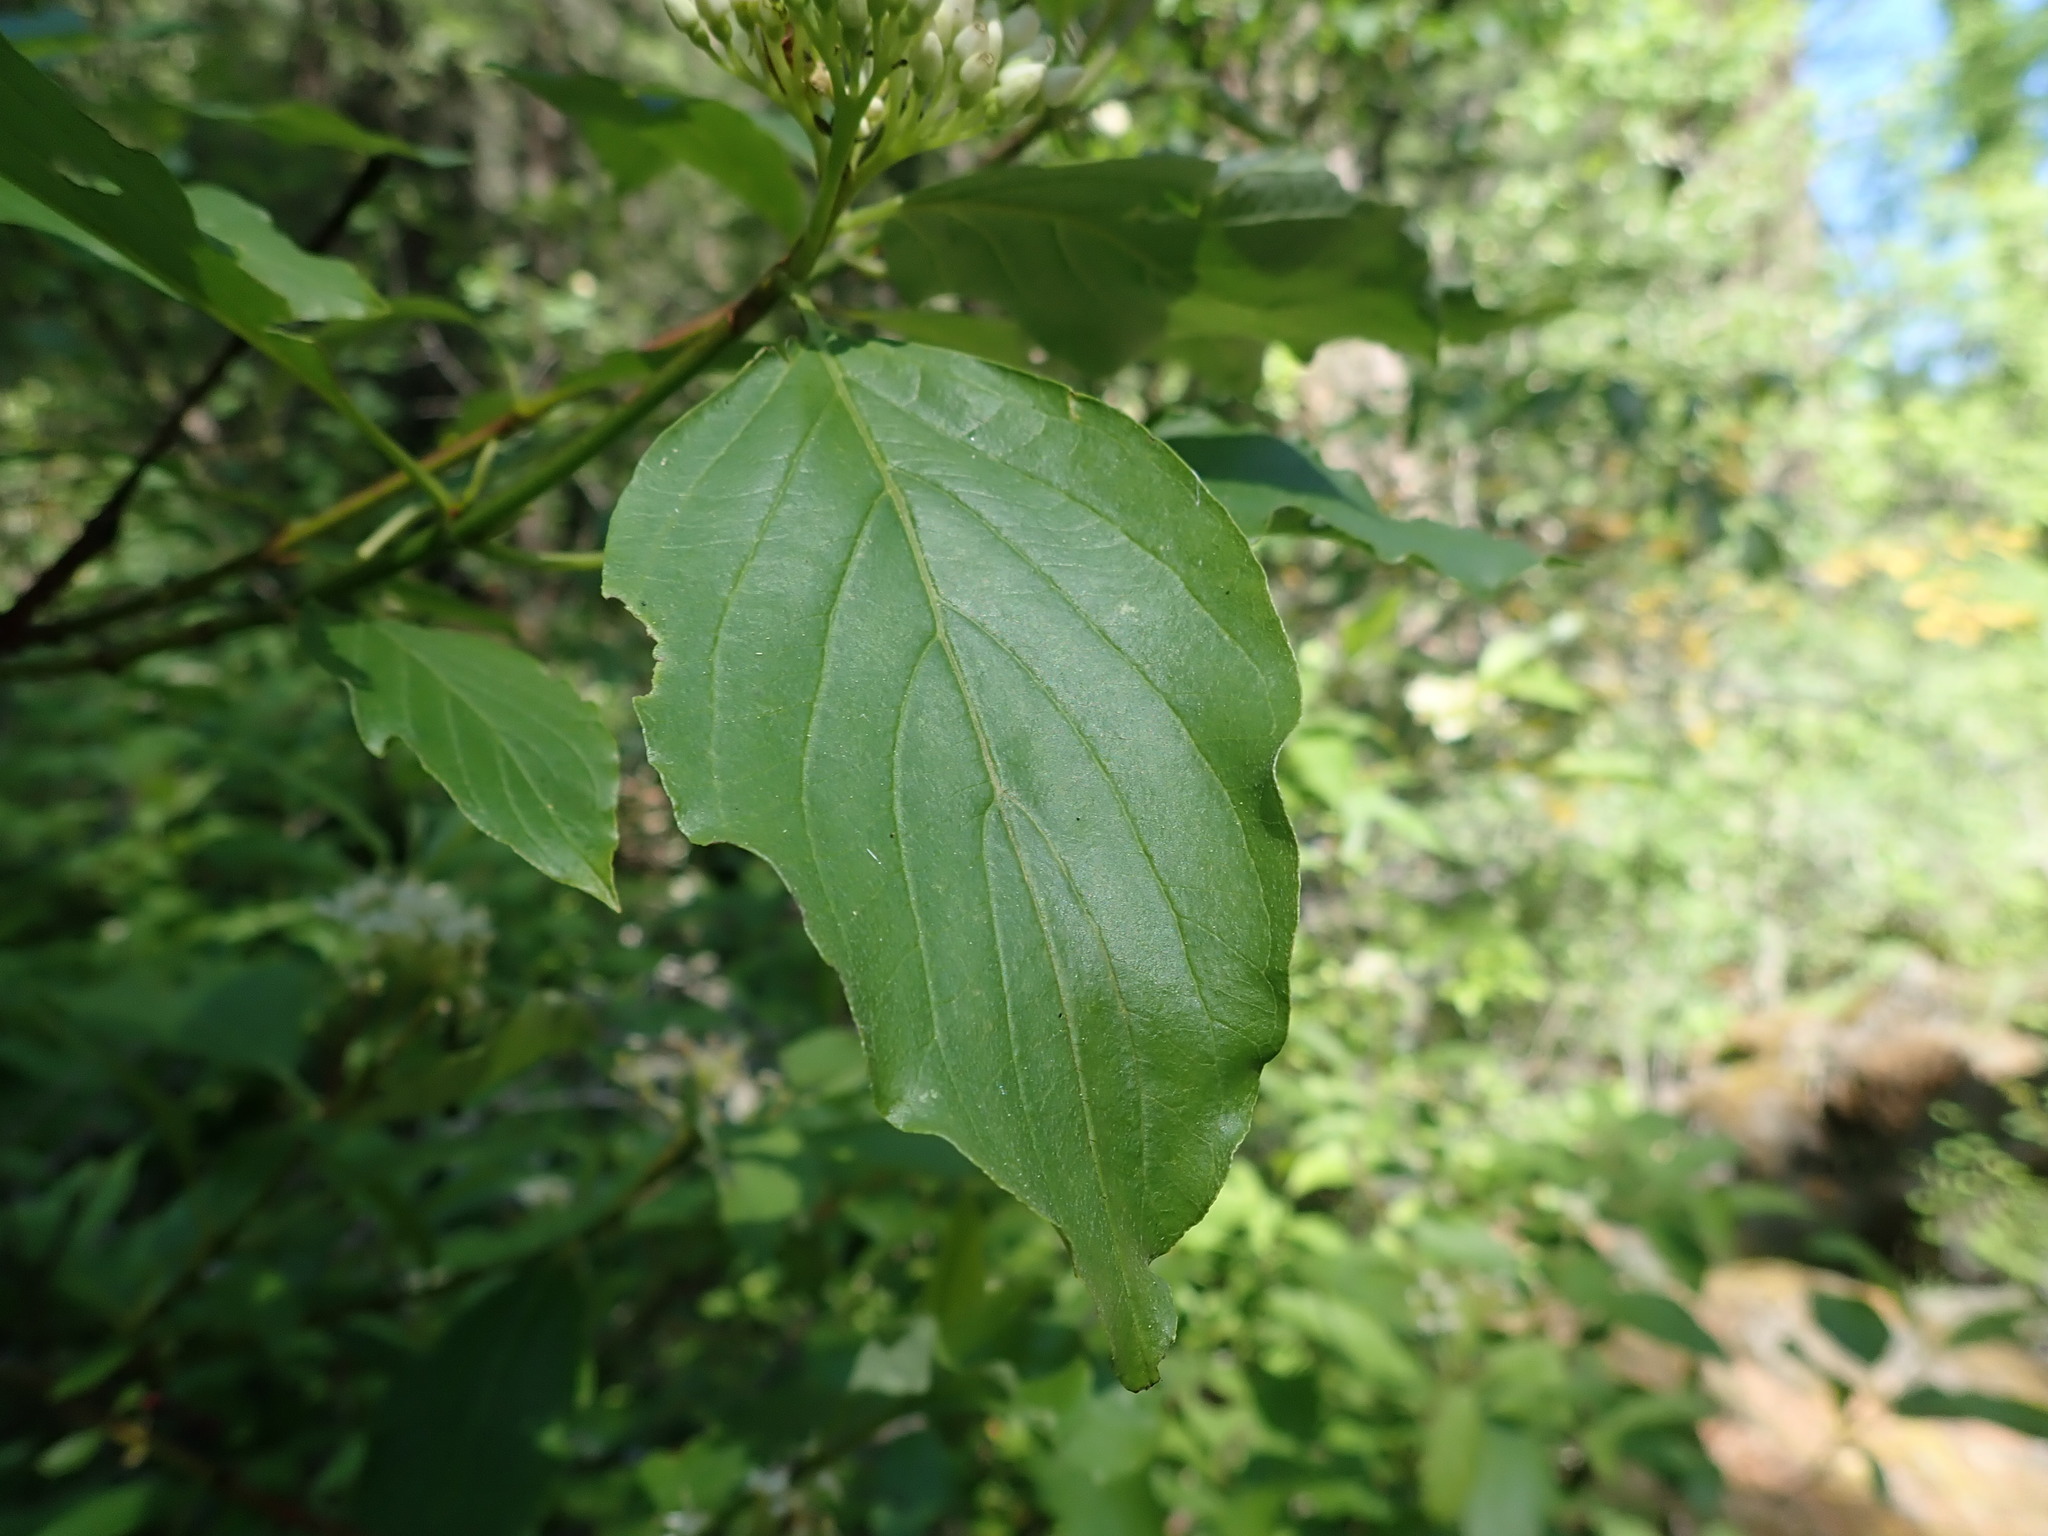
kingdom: Plantae
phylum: Tracheophyta
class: Magnoliopsida
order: Cornales
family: Cornaceae
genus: Cornus
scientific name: Cornus sericea
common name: Red-osier dogwood
